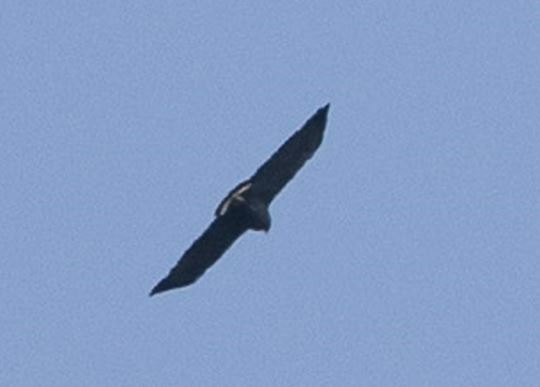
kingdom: Animalia
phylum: Chordata
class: Aves
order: Accipitriformes
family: Accipitridae
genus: Harpyhaliaetus
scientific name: Harpyhaliaetus solitarius
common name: Solitary eagle
